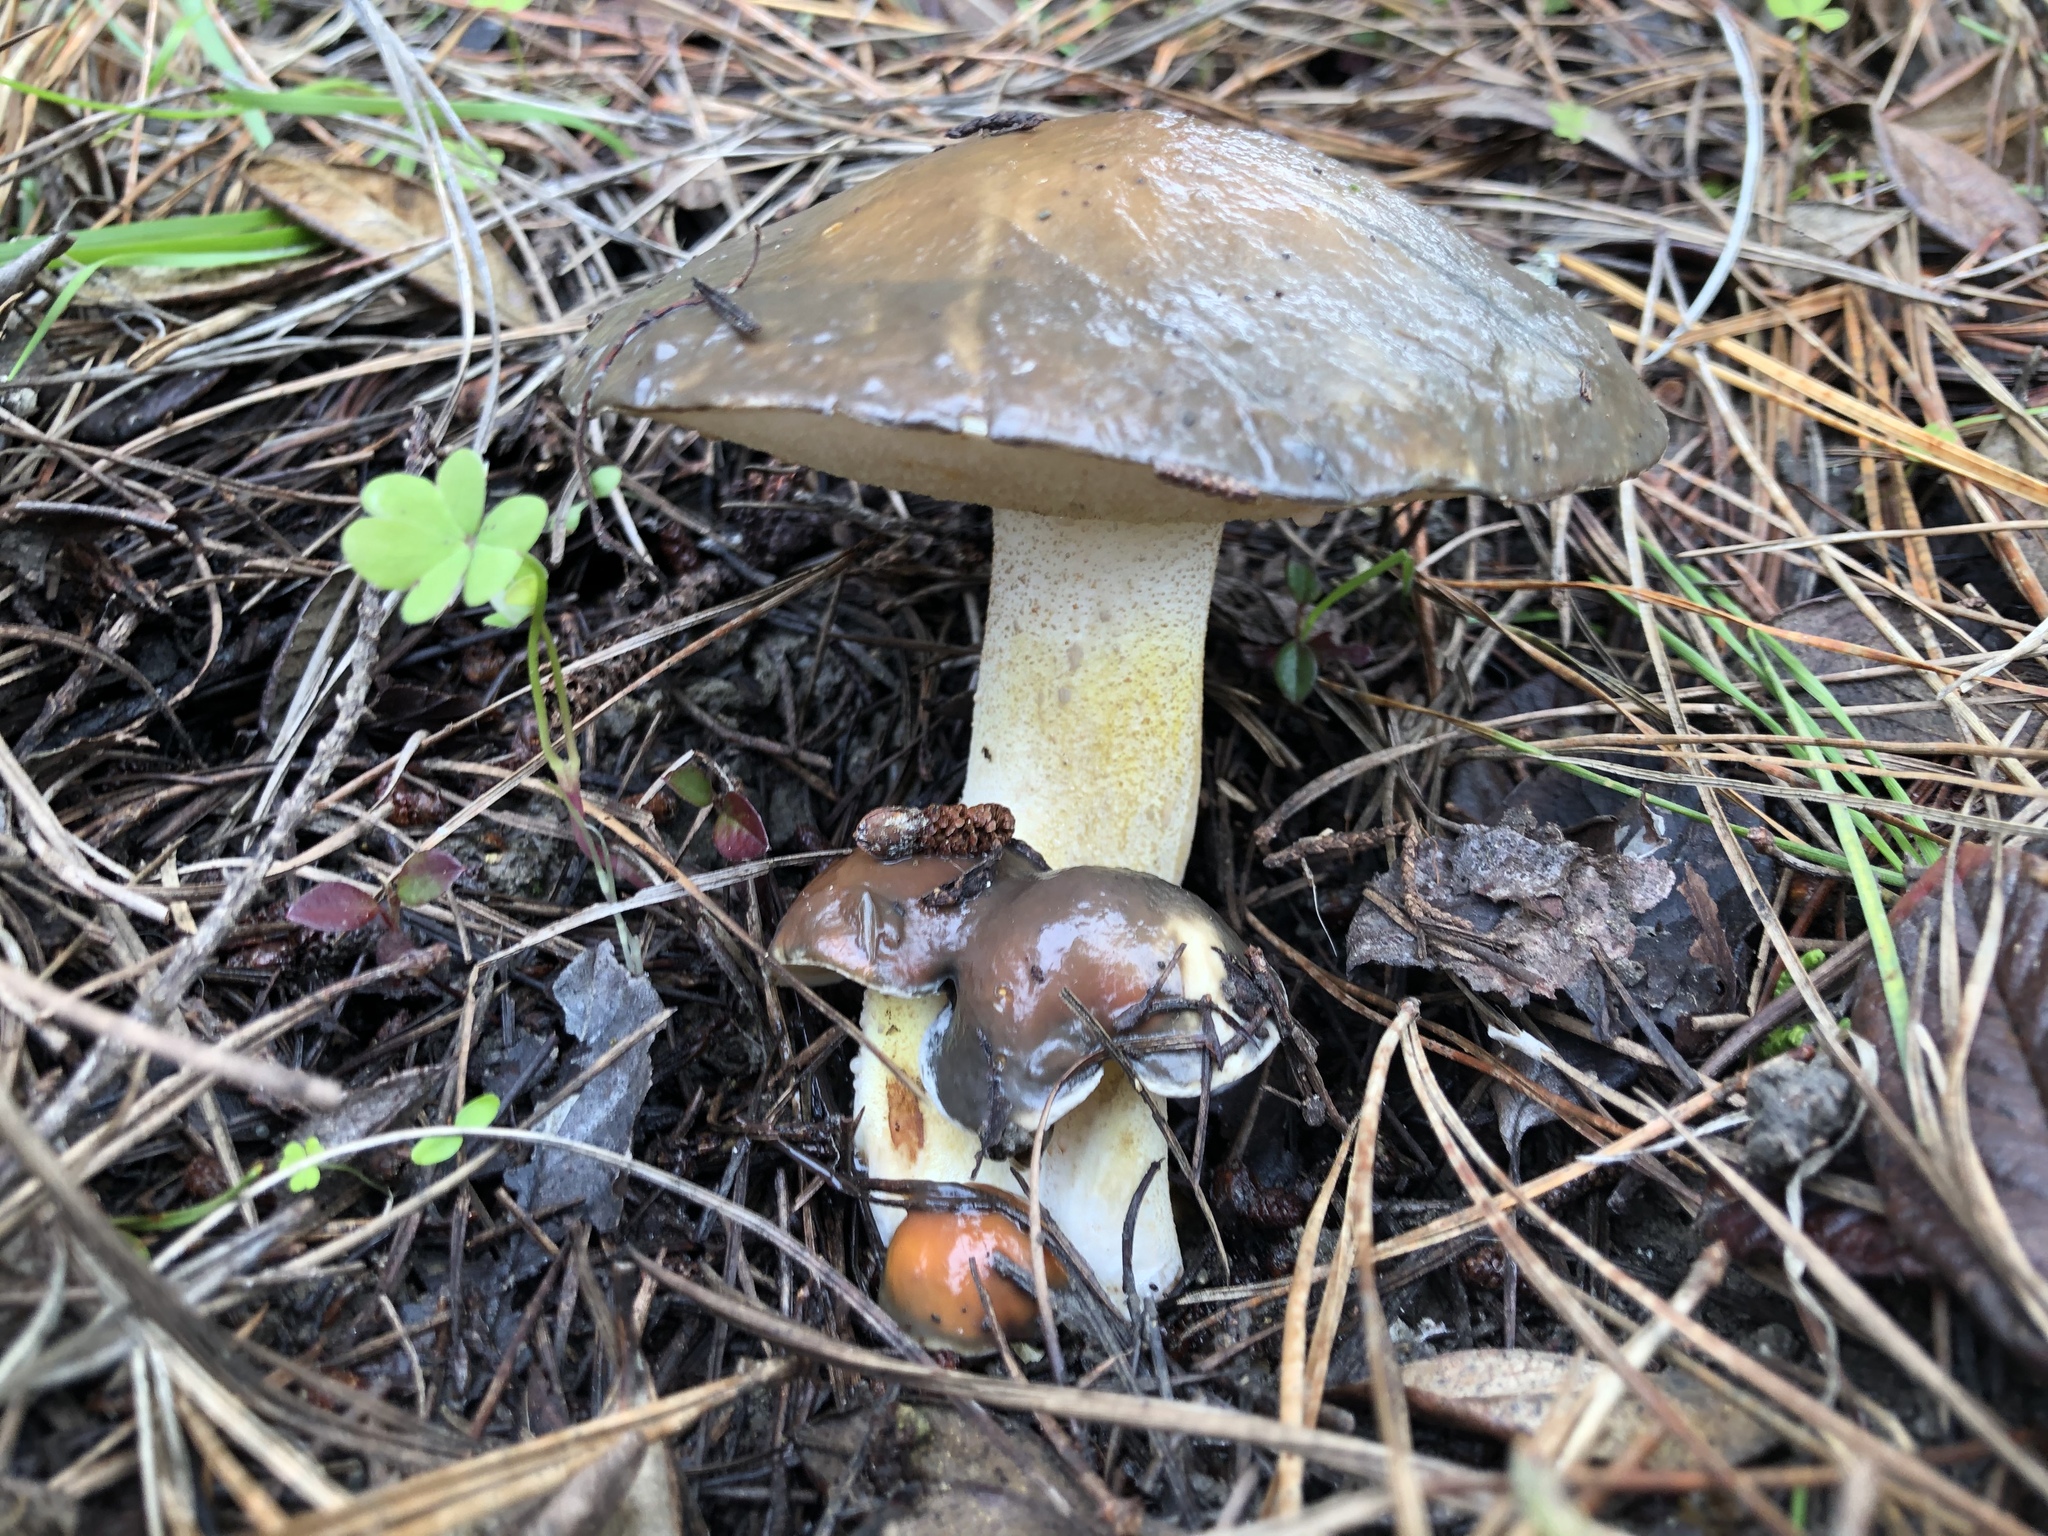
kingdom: Fungi
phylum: Basidiomycota
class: Agaricomycetes
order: Boletales
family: Suillaceae
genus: Suillus
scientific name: Suillus pungens
